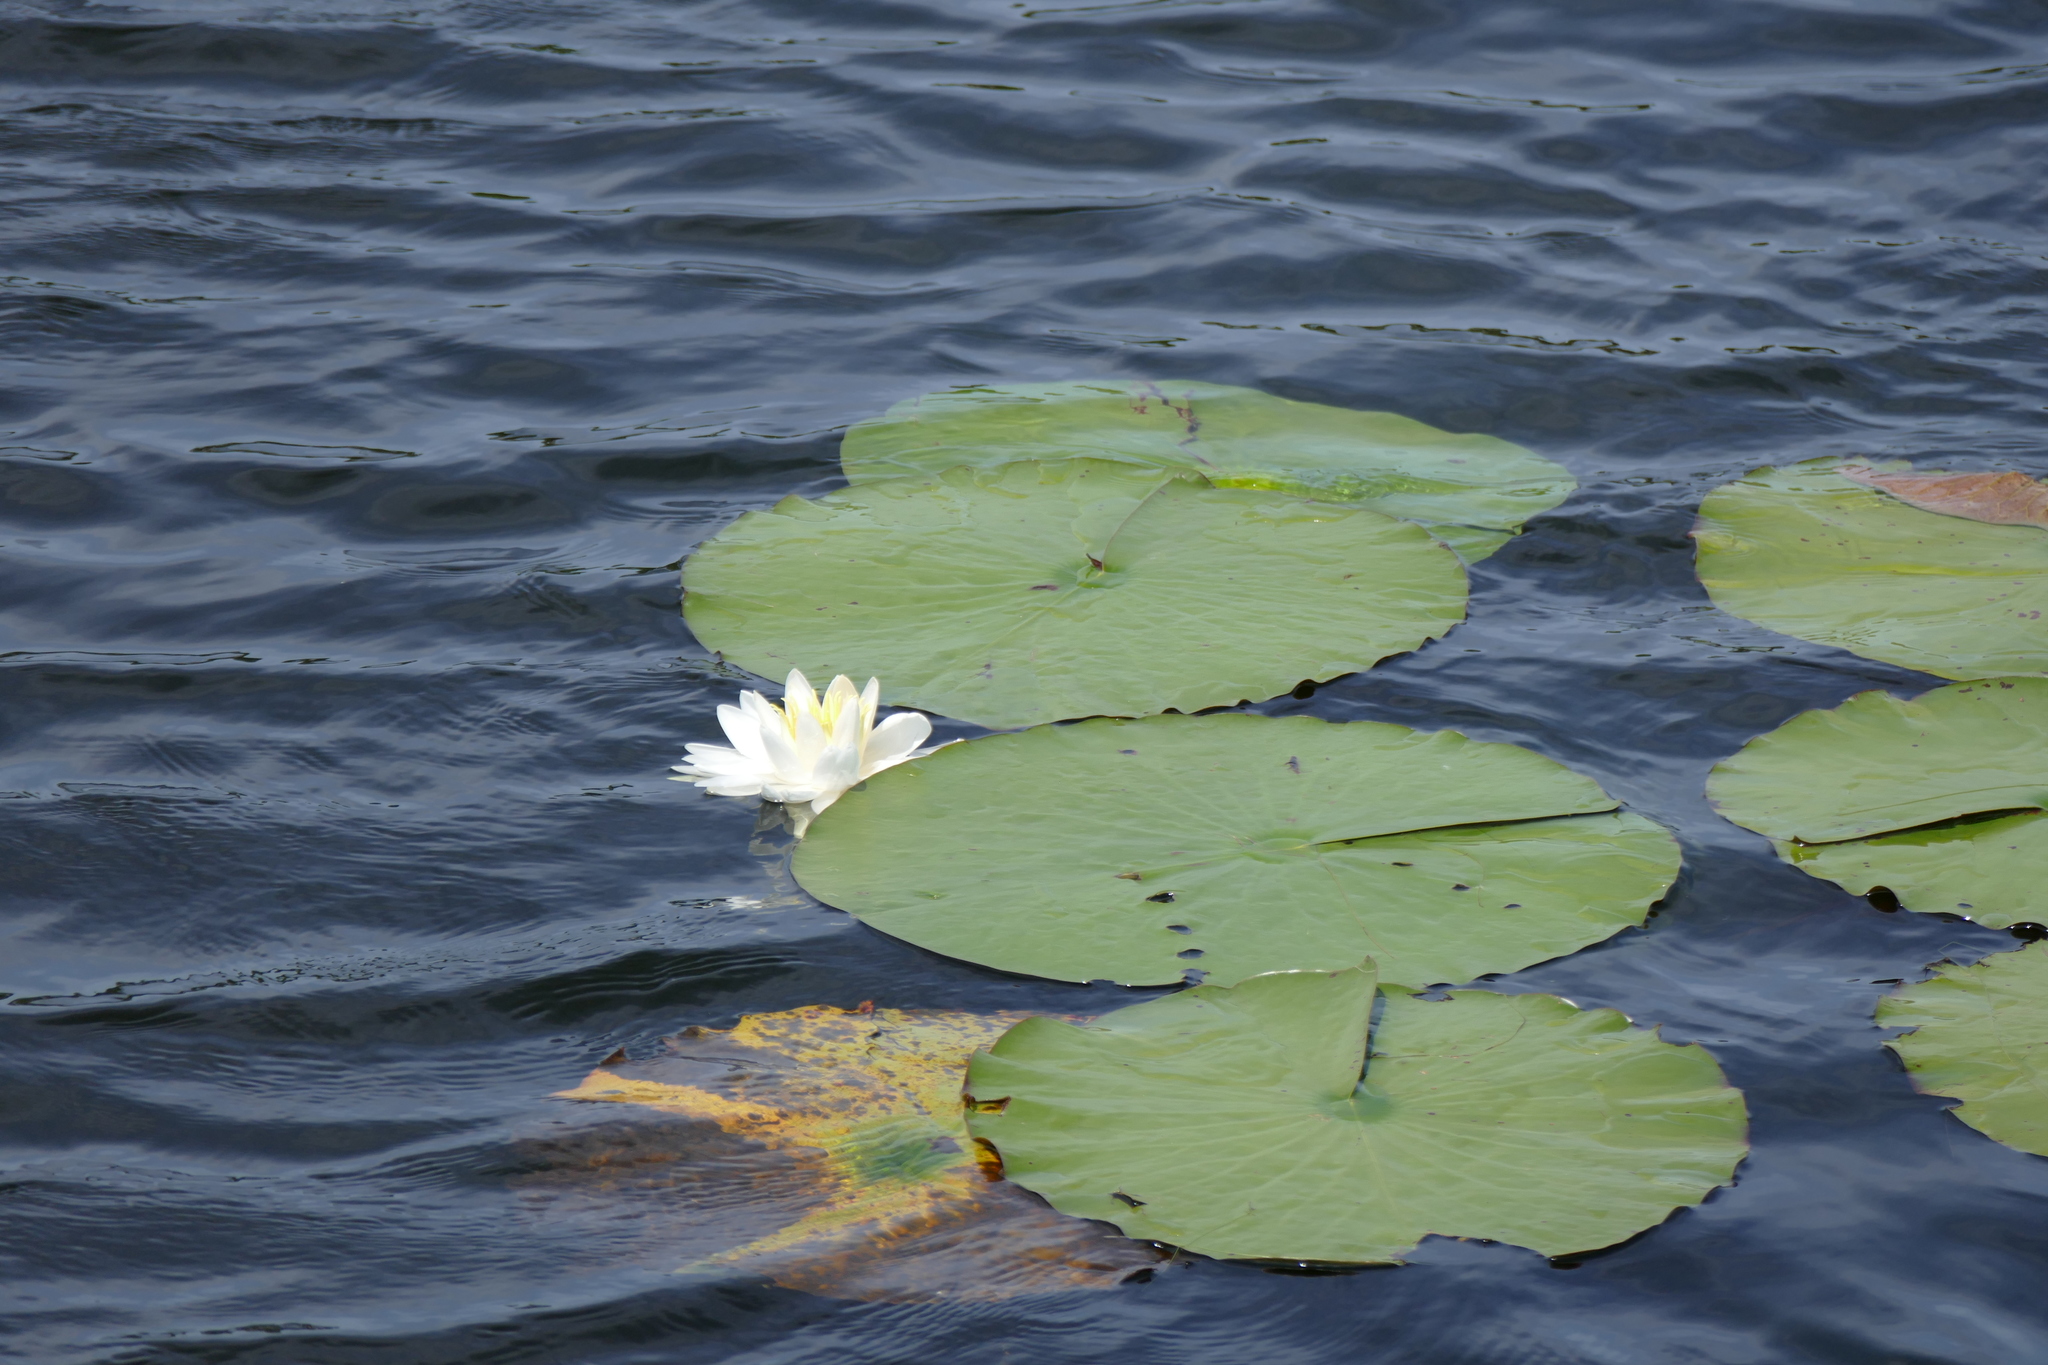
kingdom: Plantae
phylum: Tracheophyta
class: Magnoliopsida
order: Nymphaeales
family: Nymphaeaceae
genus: Nymphaea
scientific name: Nymphaea odorata
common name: Fragrant water-lily
